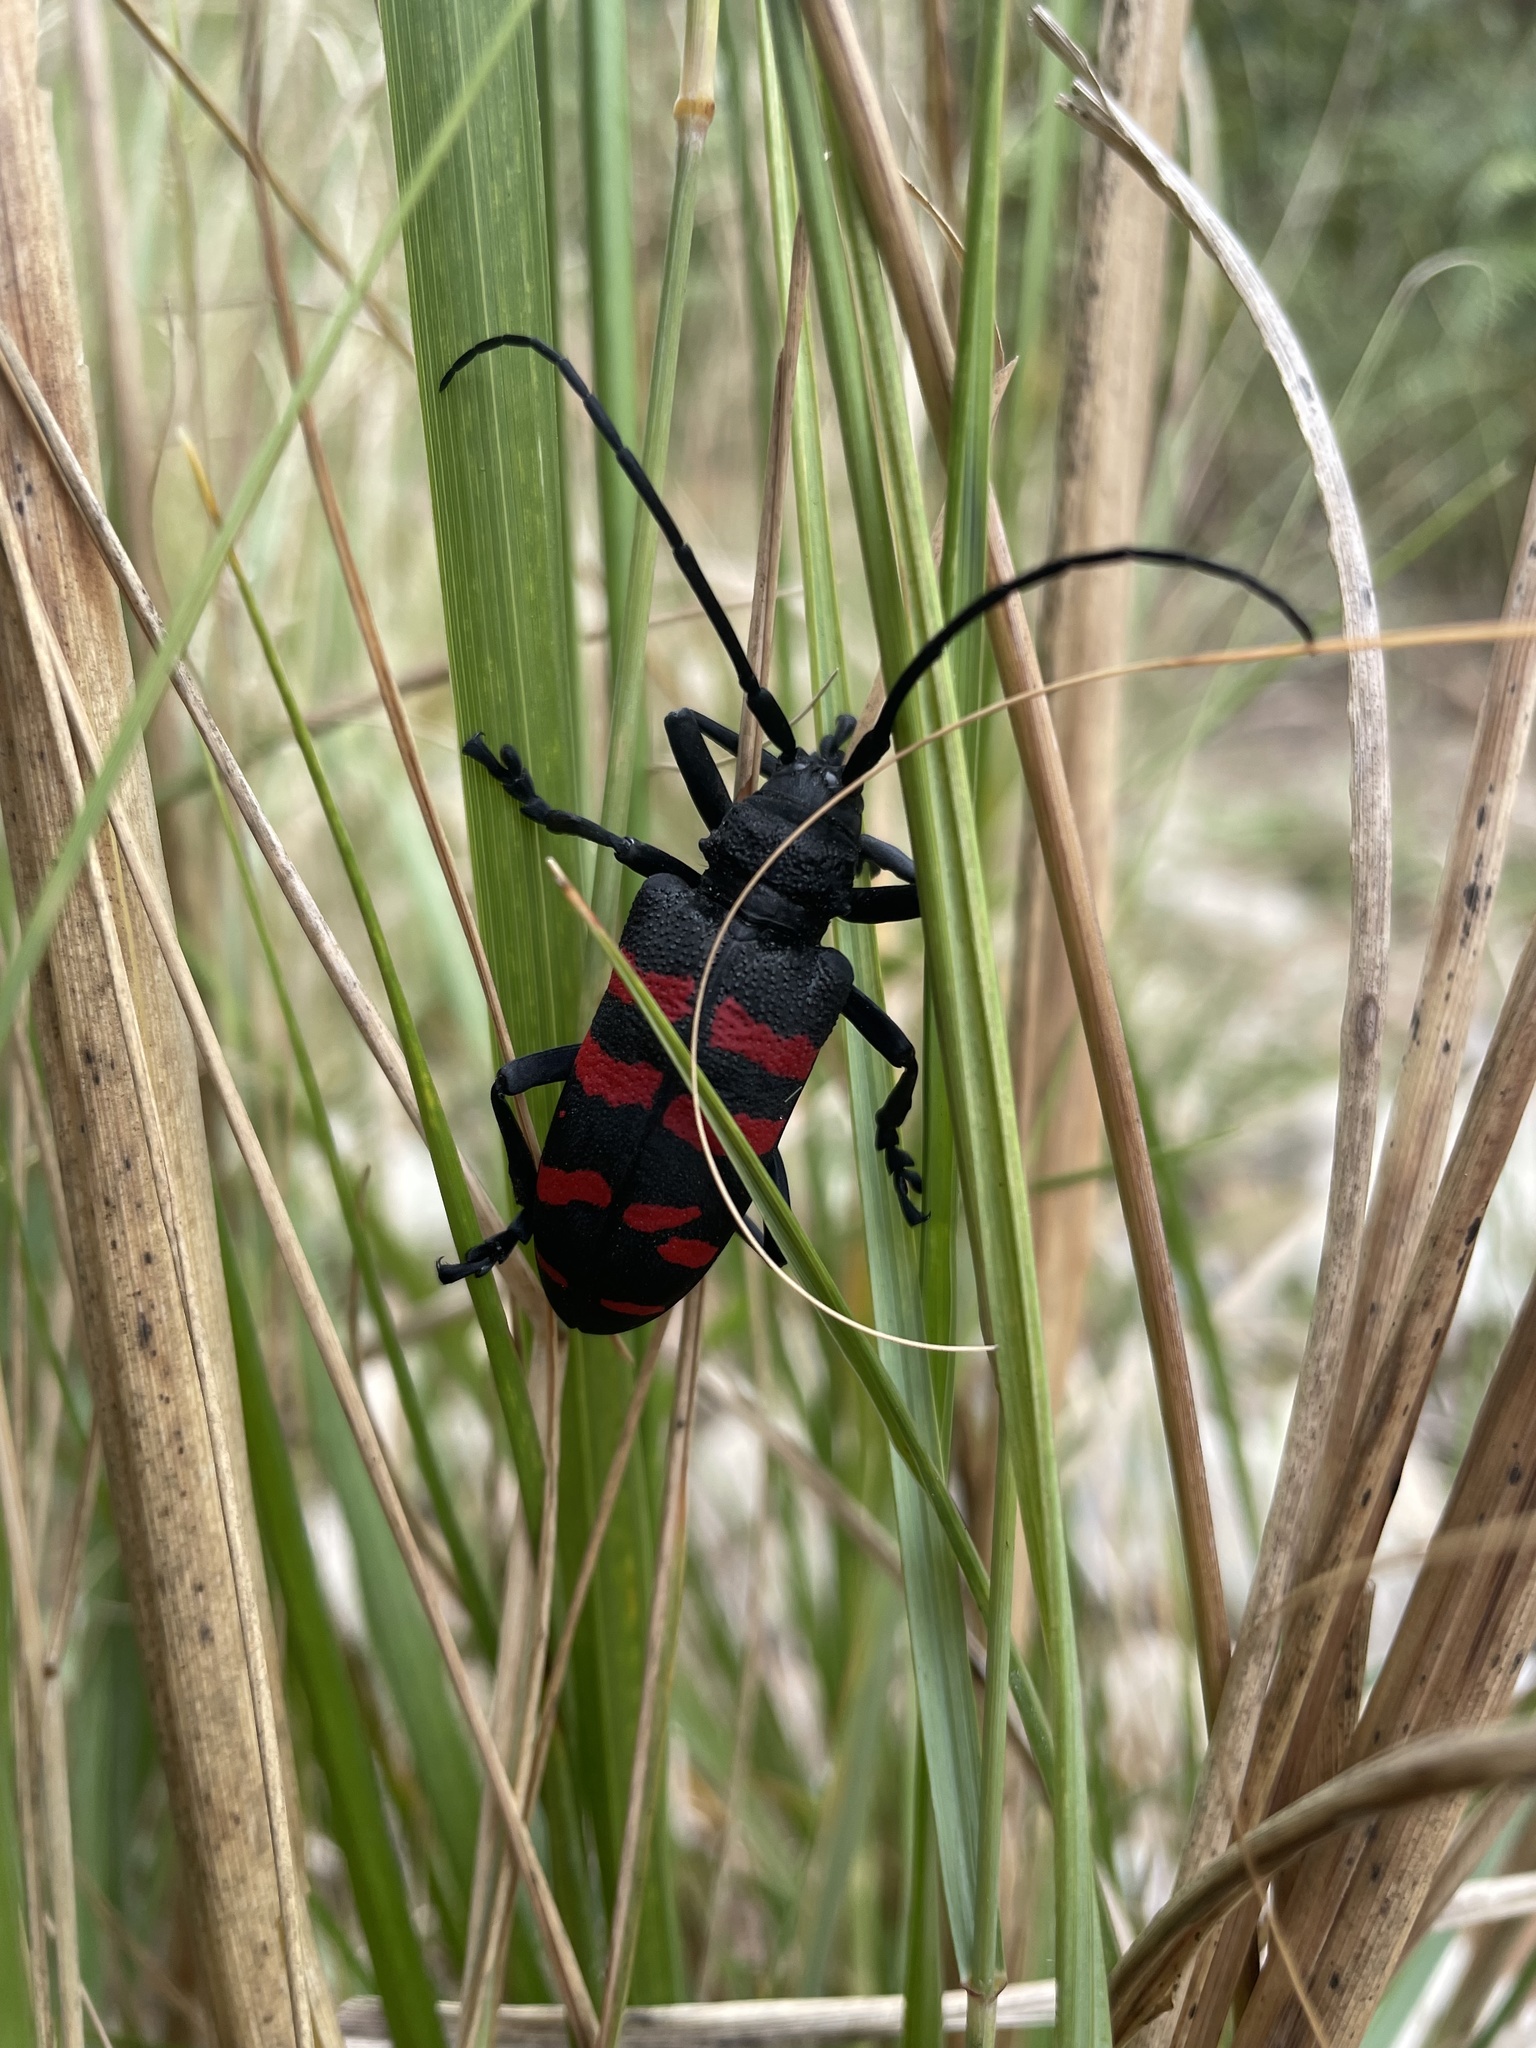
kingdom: Animalia
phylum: Arthropoda
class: Insecta
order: Coleoptera
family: Cerambycidae
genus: Ceroplesis
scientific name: Ceroplesis capensis
